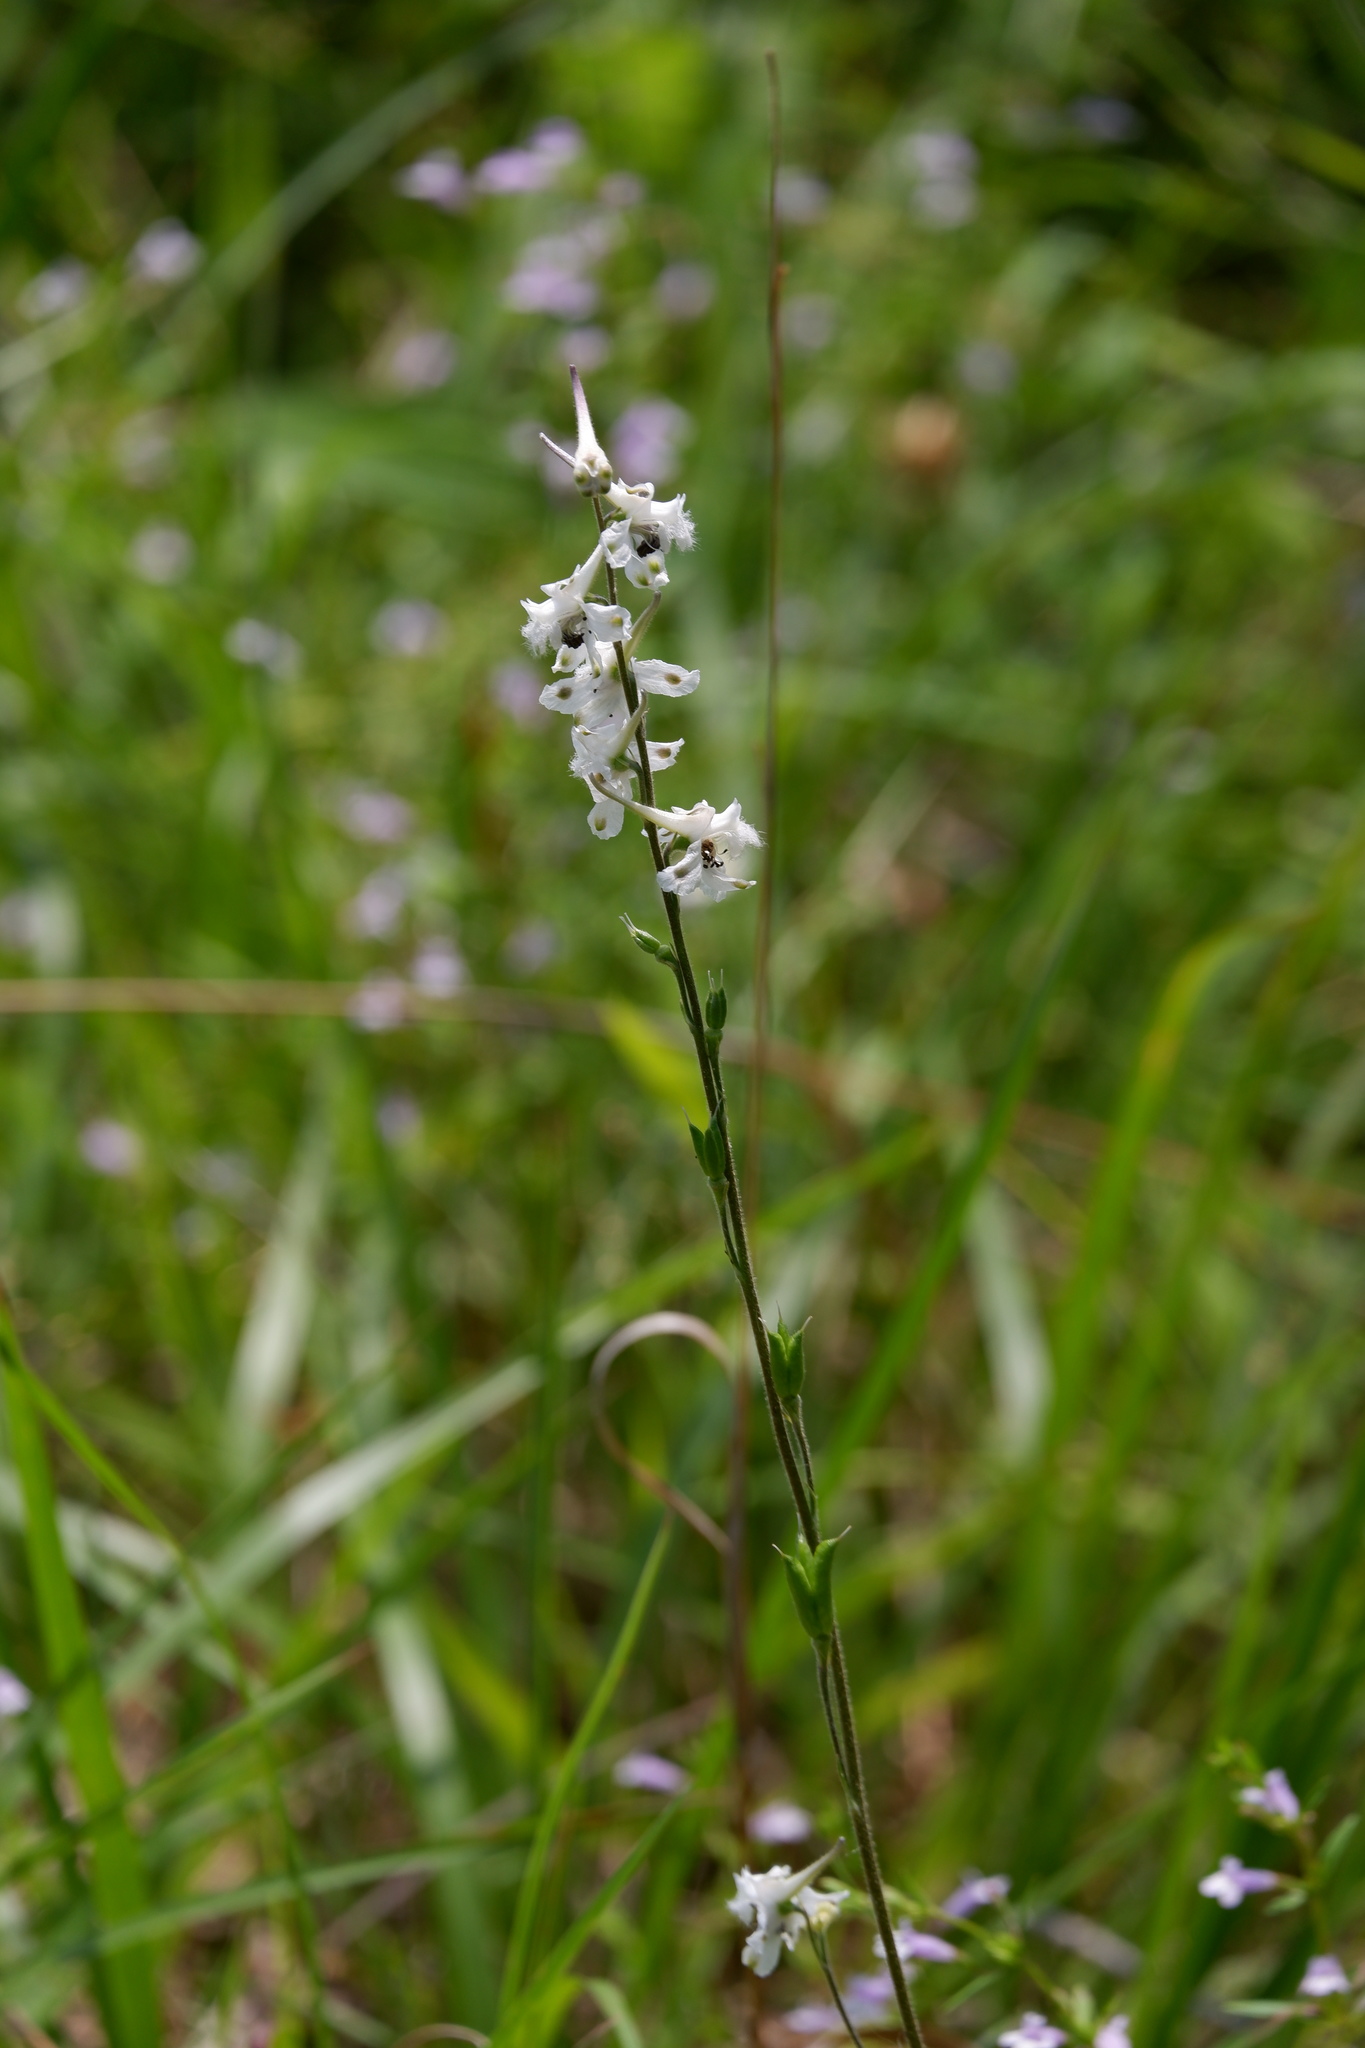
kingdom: Plantae
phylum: Tracheophyta
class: Magnoliopsida
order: Ranunculales
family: Ranunculaceae
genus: Delphinium
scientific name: Delphinium carolinianum
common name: Carolina larkspur
